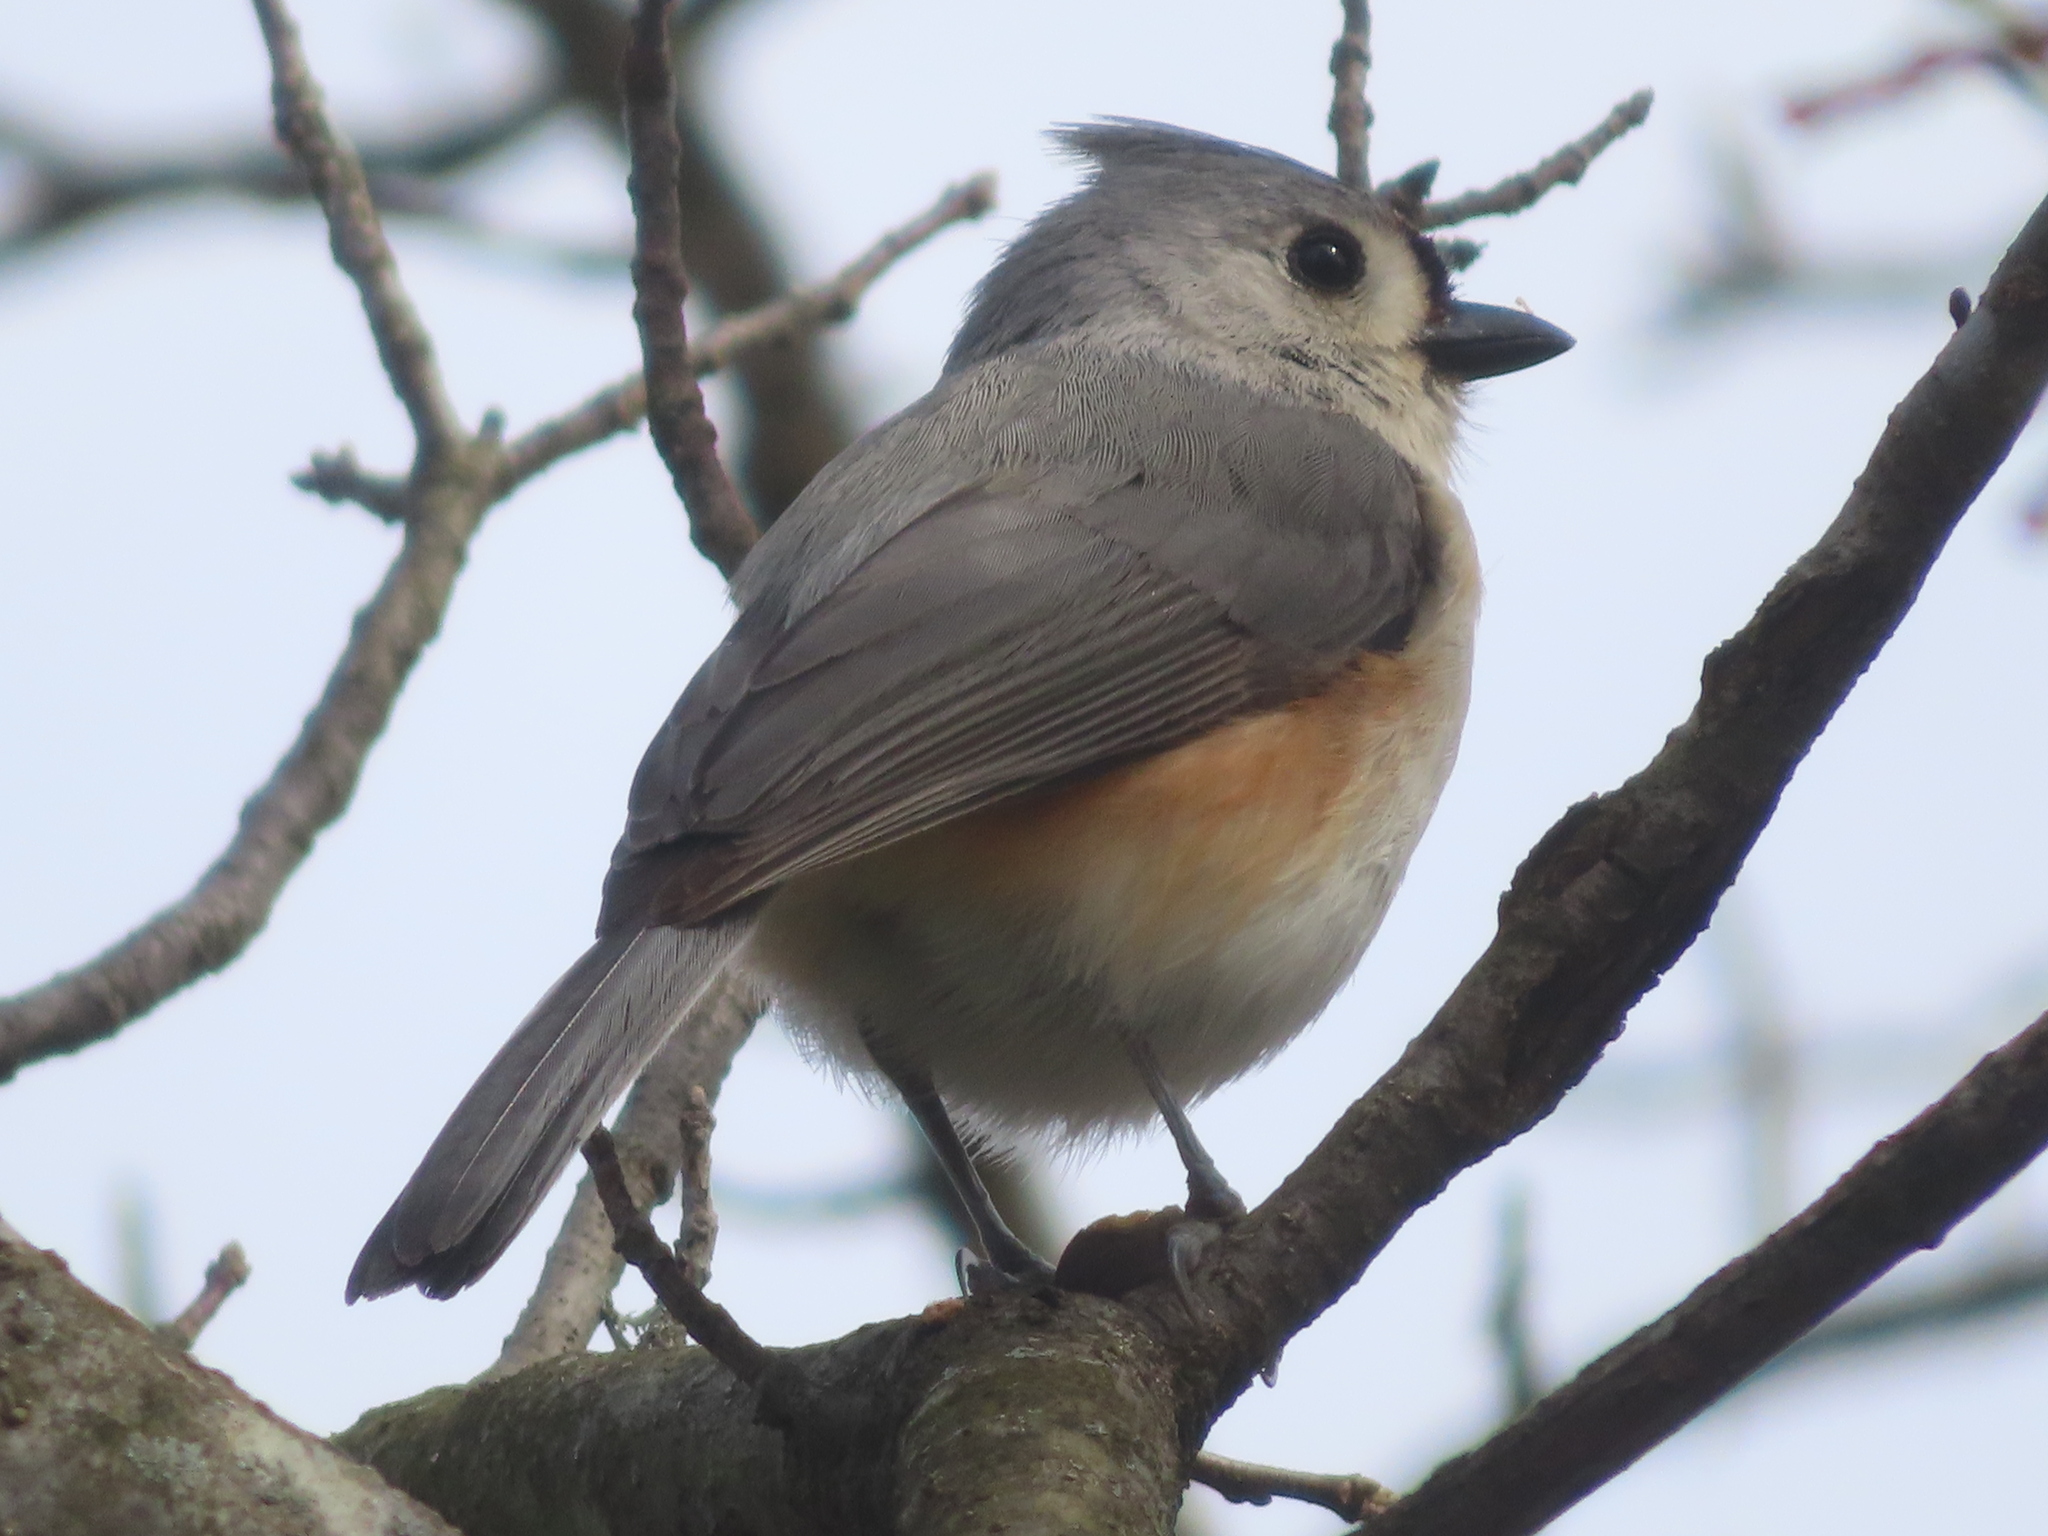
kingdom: Animalia
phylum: Chordata
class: Aves
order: Passeriformes
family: Paridae
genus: Baeolophus
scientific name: Baeolophus bicolor
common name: Tufted titmouse
